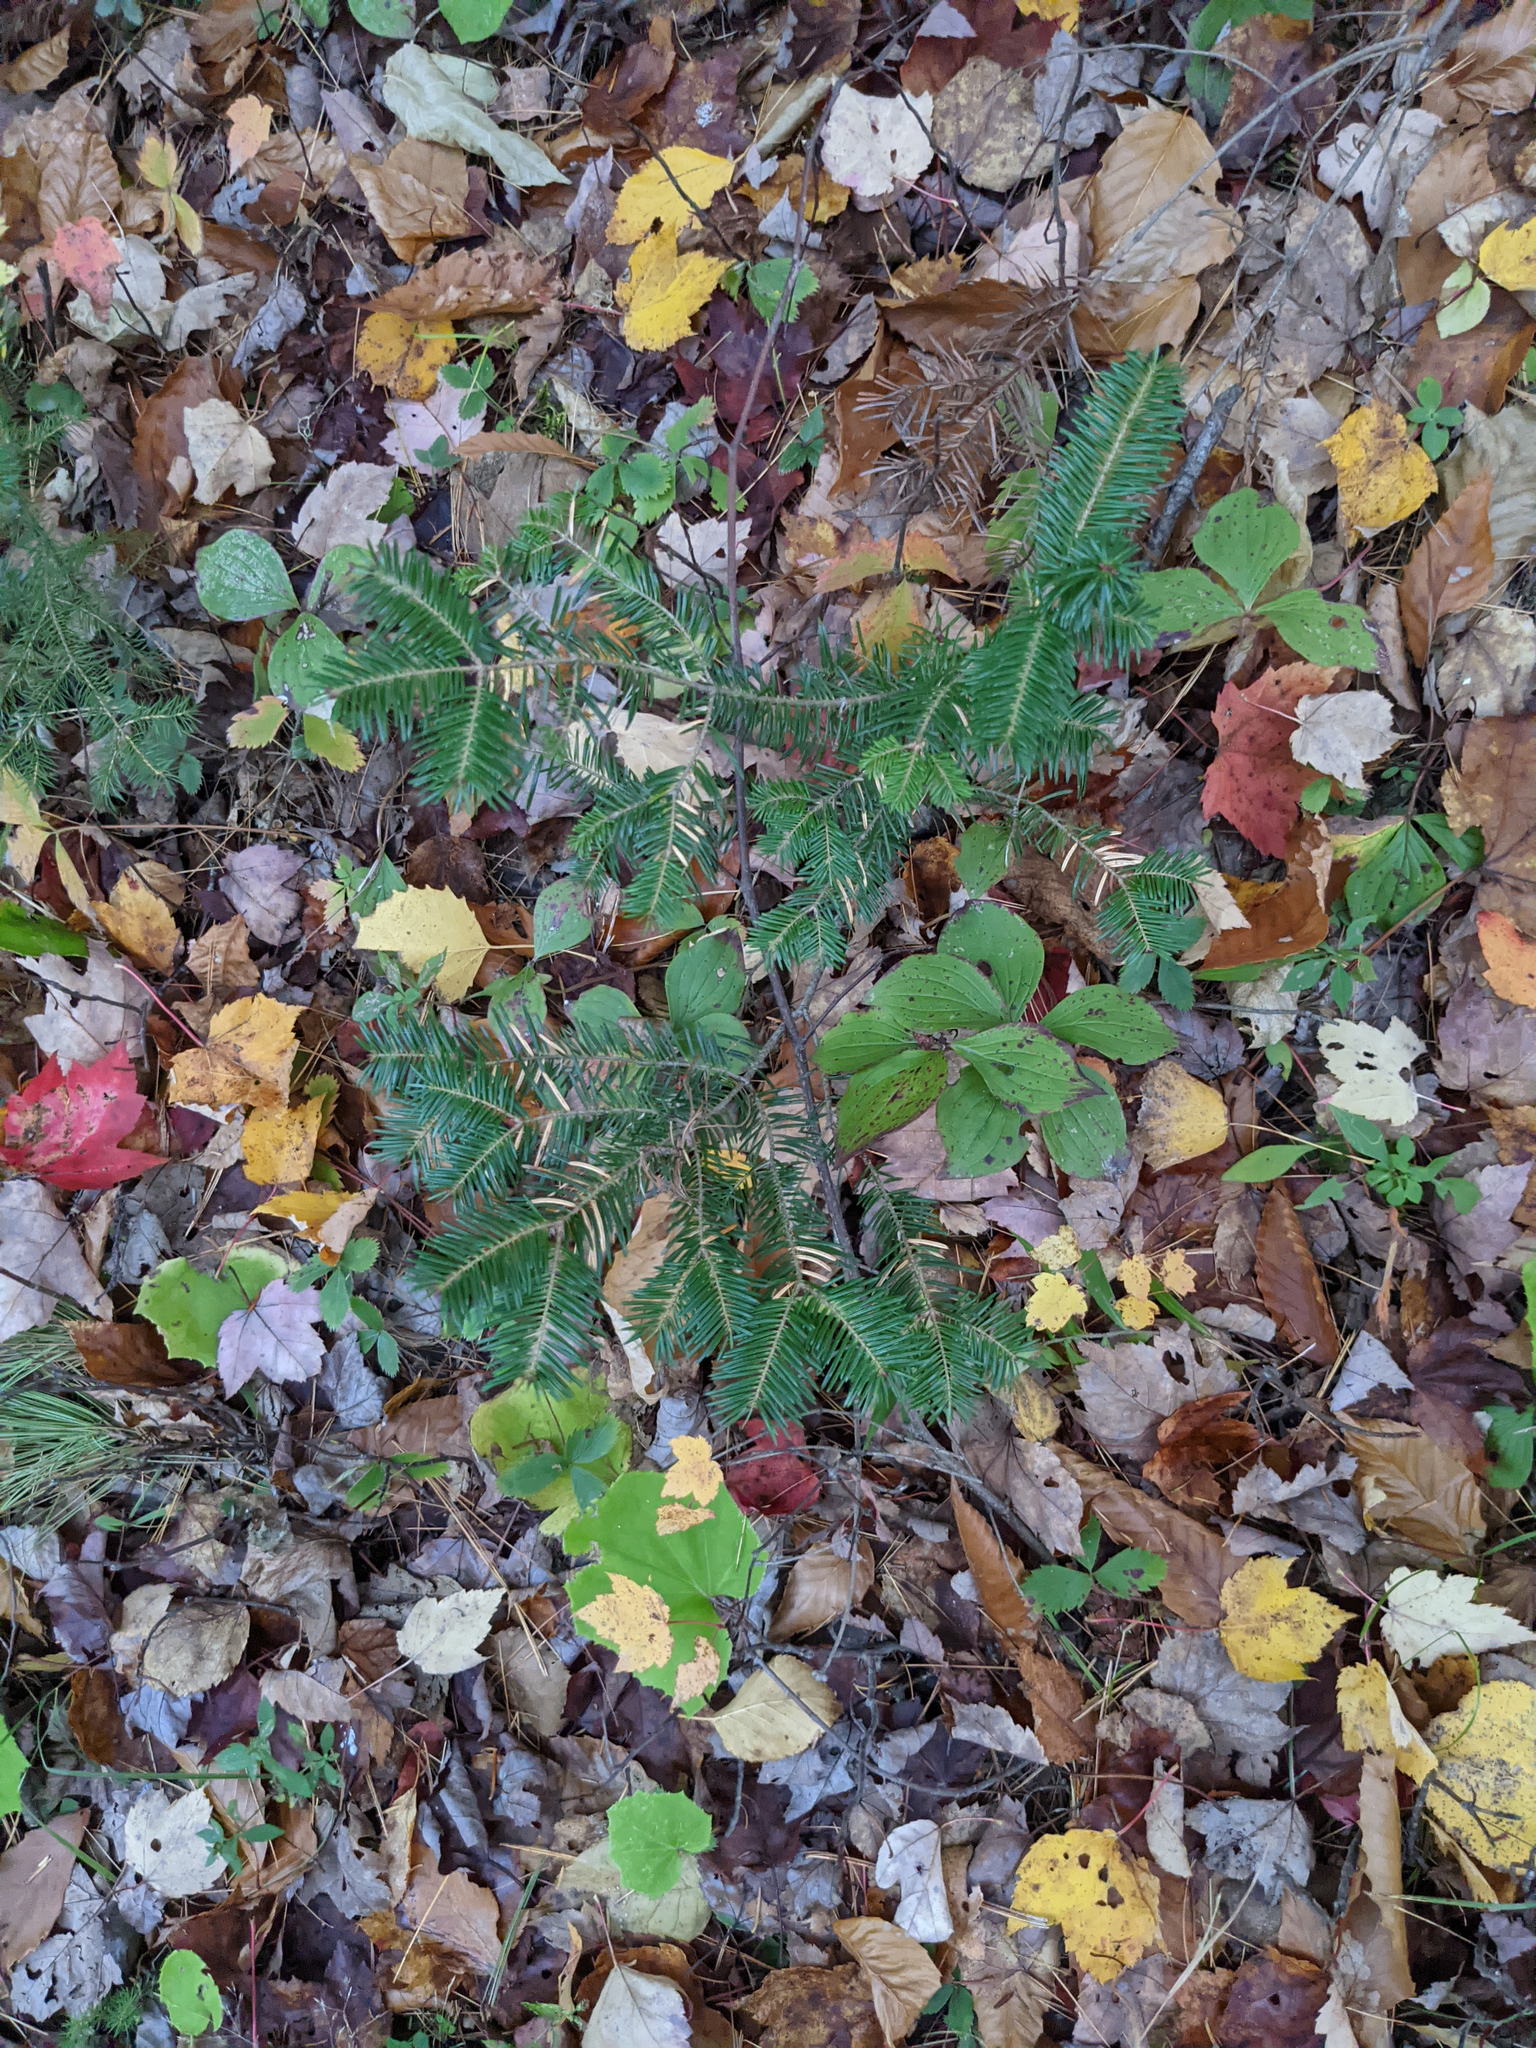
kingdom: Plantae
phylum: Tracheophyta
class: Pinopsida
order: Pinales
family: Pinaceae
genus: Abies
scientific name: Abies balsamea
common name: Balsam fir
